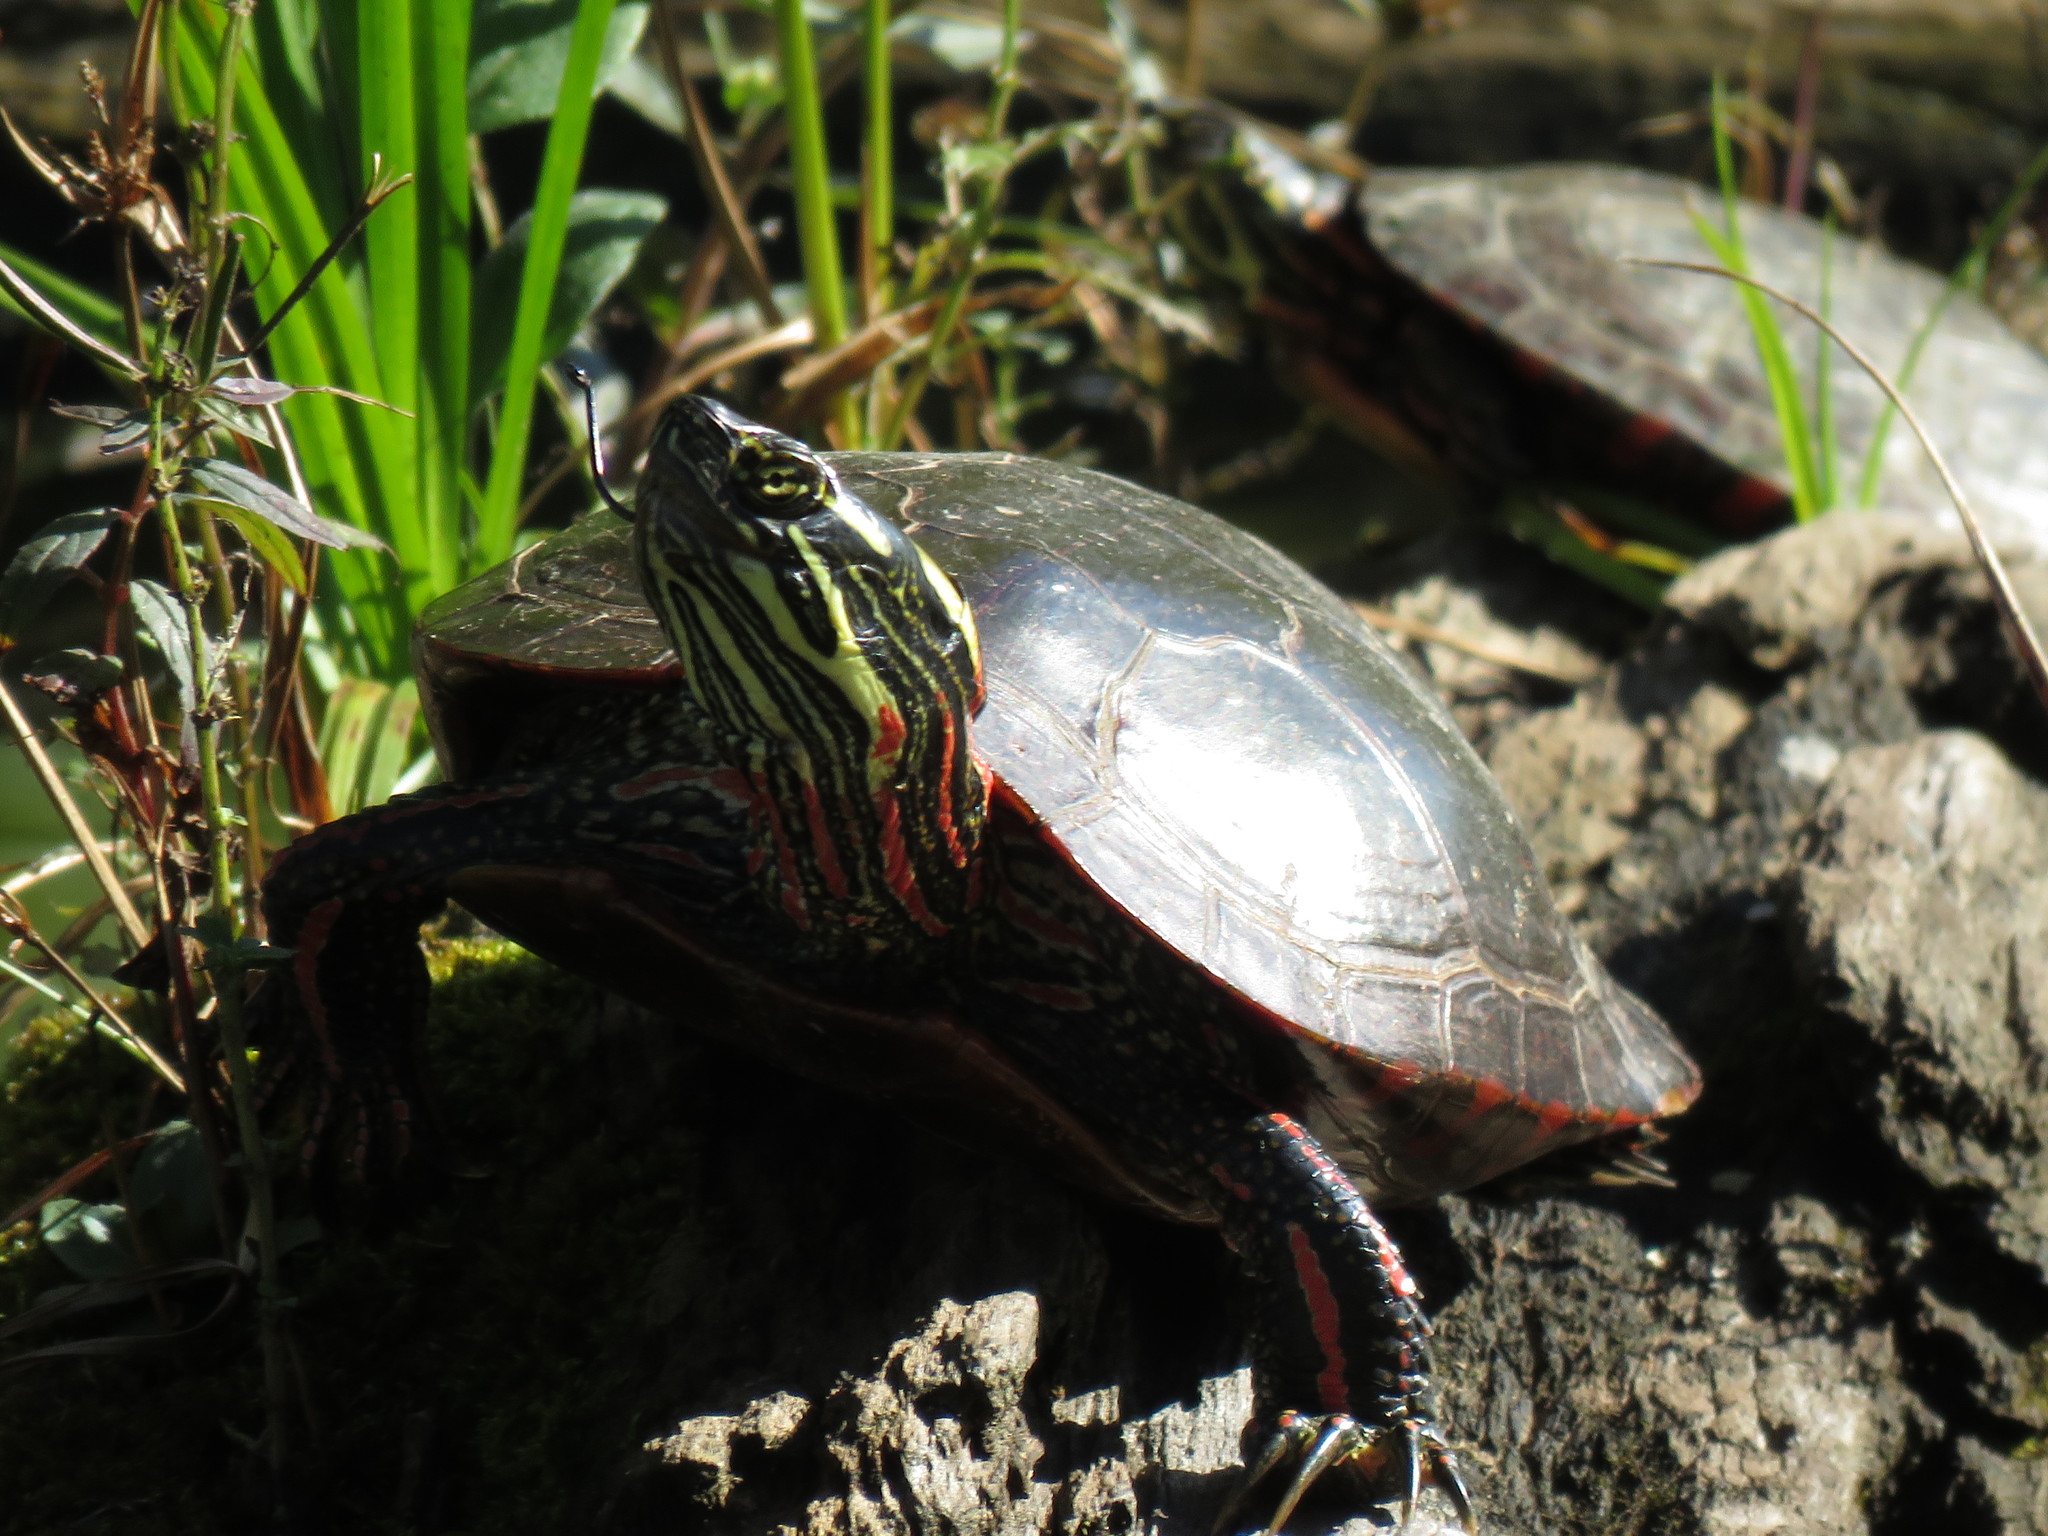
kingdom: Animalia
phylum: Chordata
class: Testudines
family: Emydidae
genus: Chrysemys
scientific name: Chrysemys picta
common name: Painted turtle
